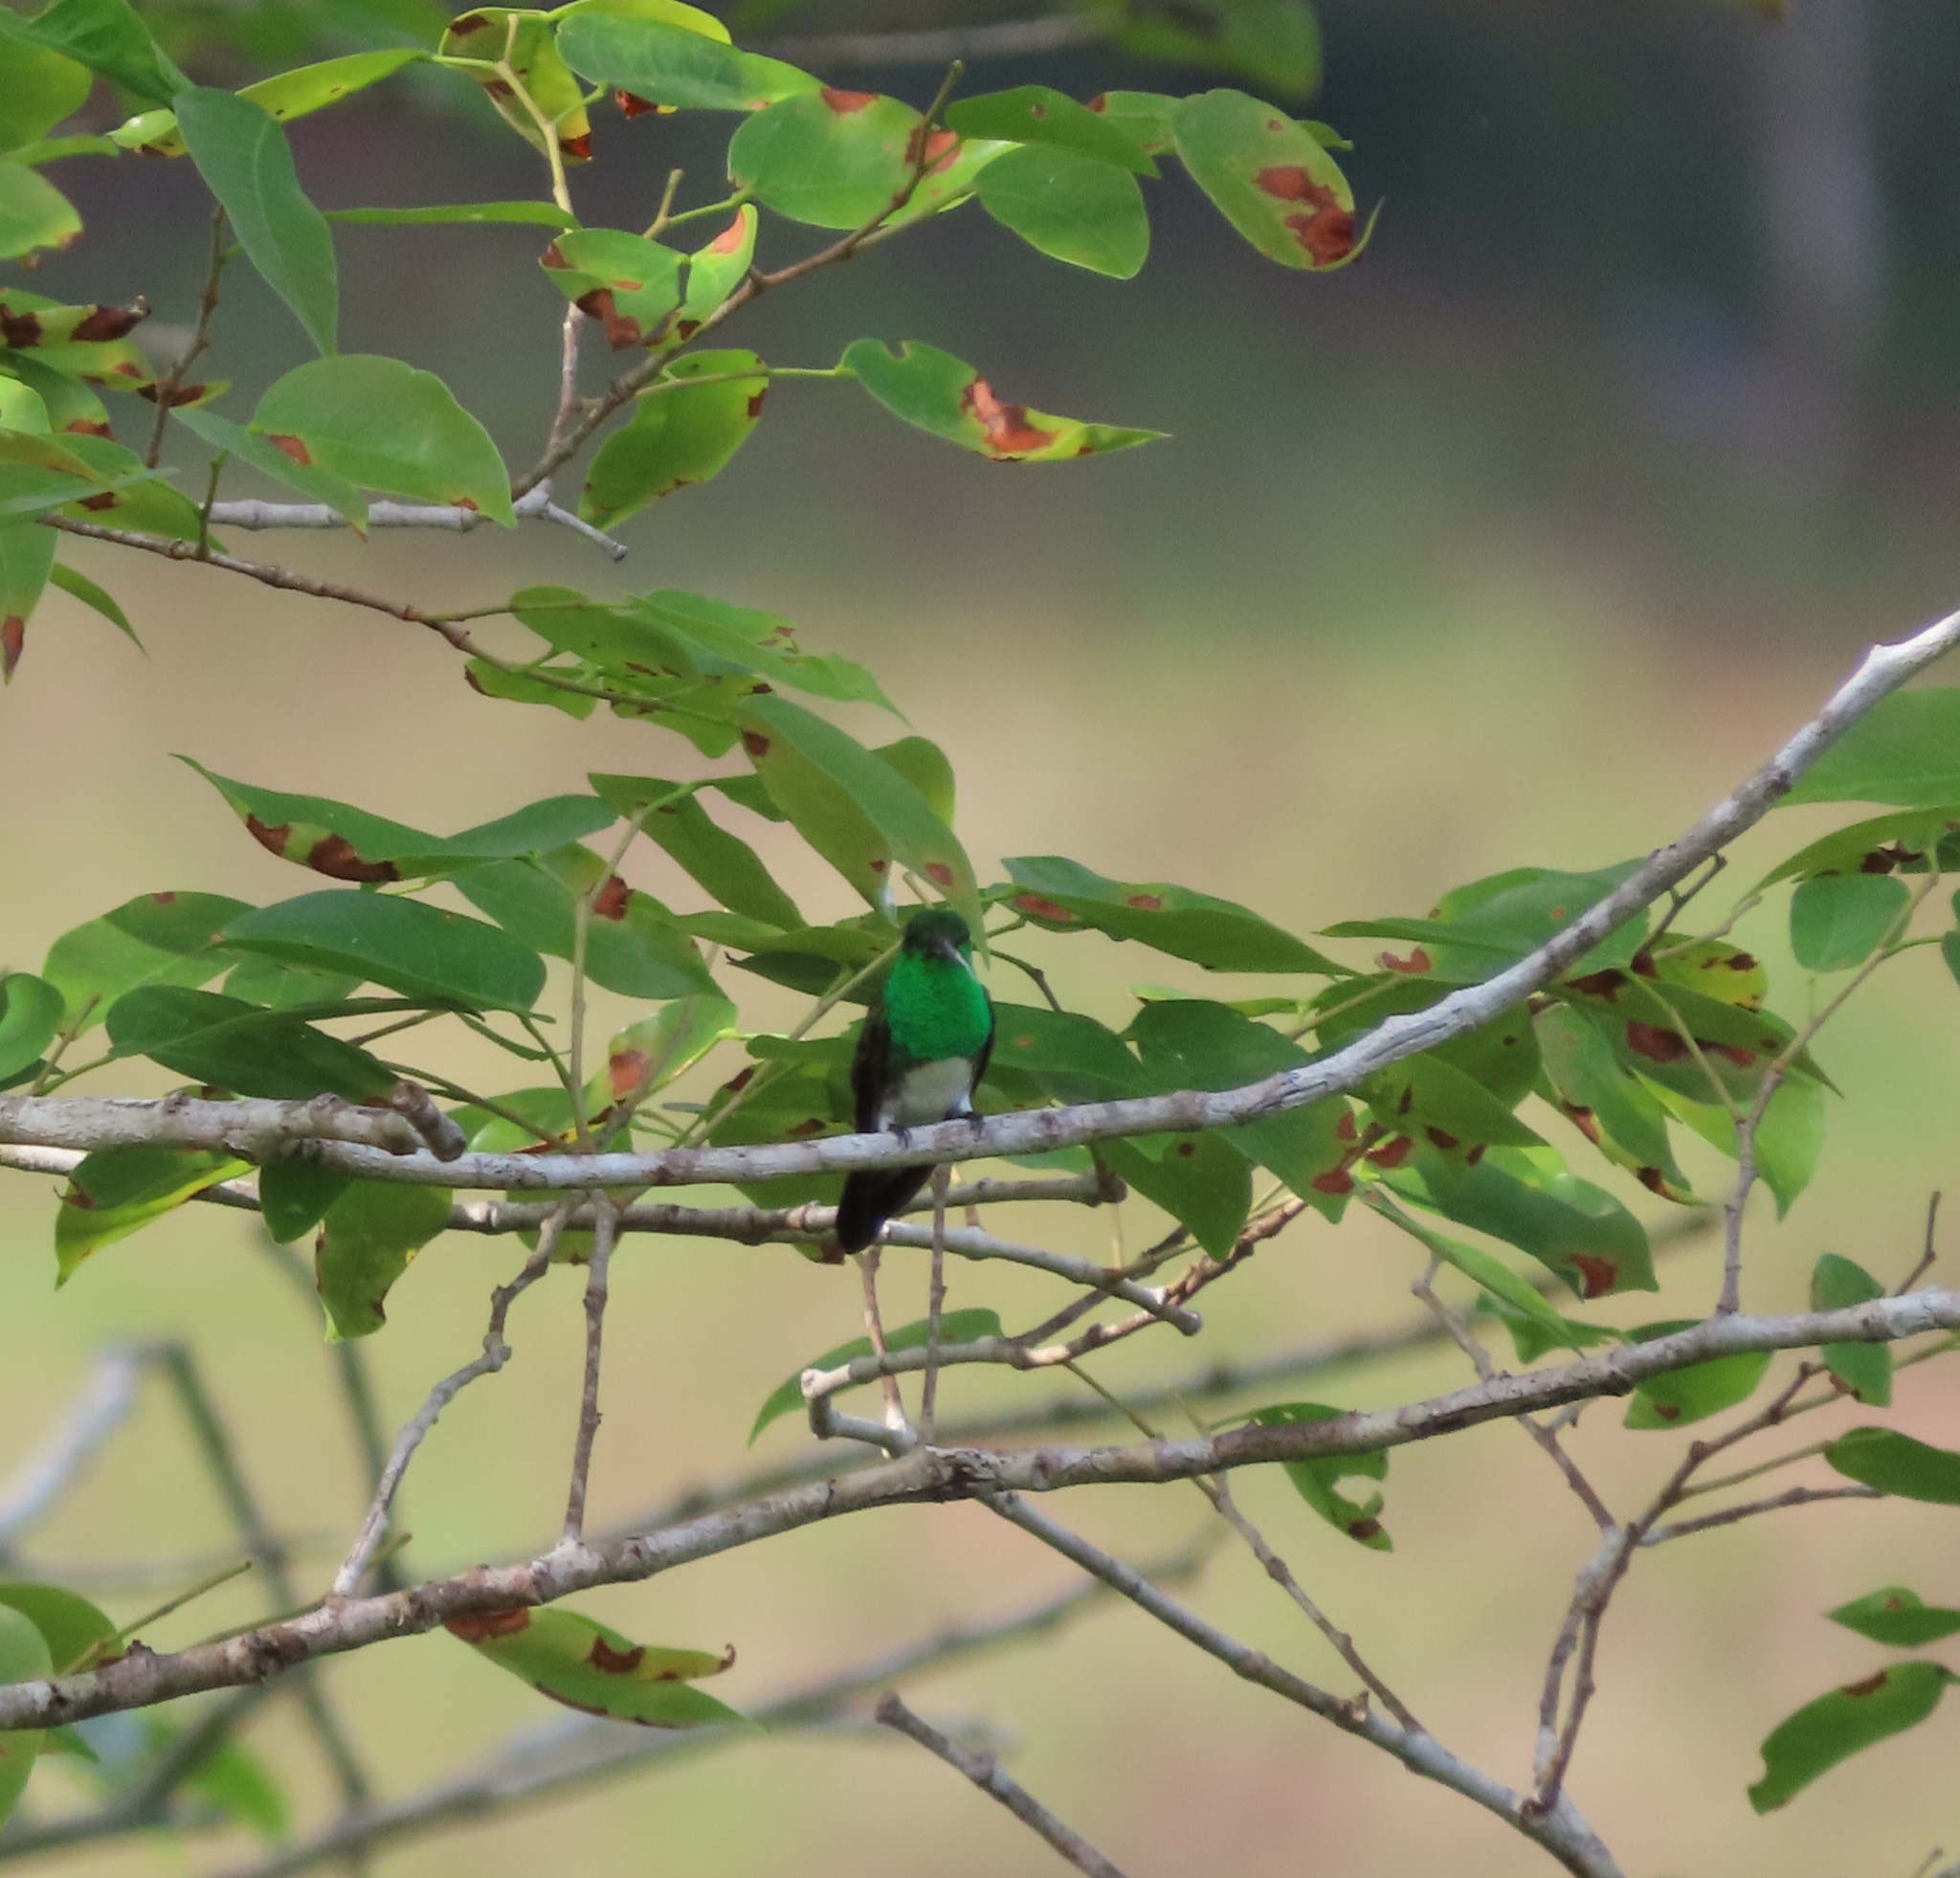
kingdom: Animalia
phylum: Chordata
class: Aves
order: Apodiformes
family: Trochilidae
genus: Saucerottia
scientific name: Saucerottia edward
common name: Snowy-bellied hummingbird
